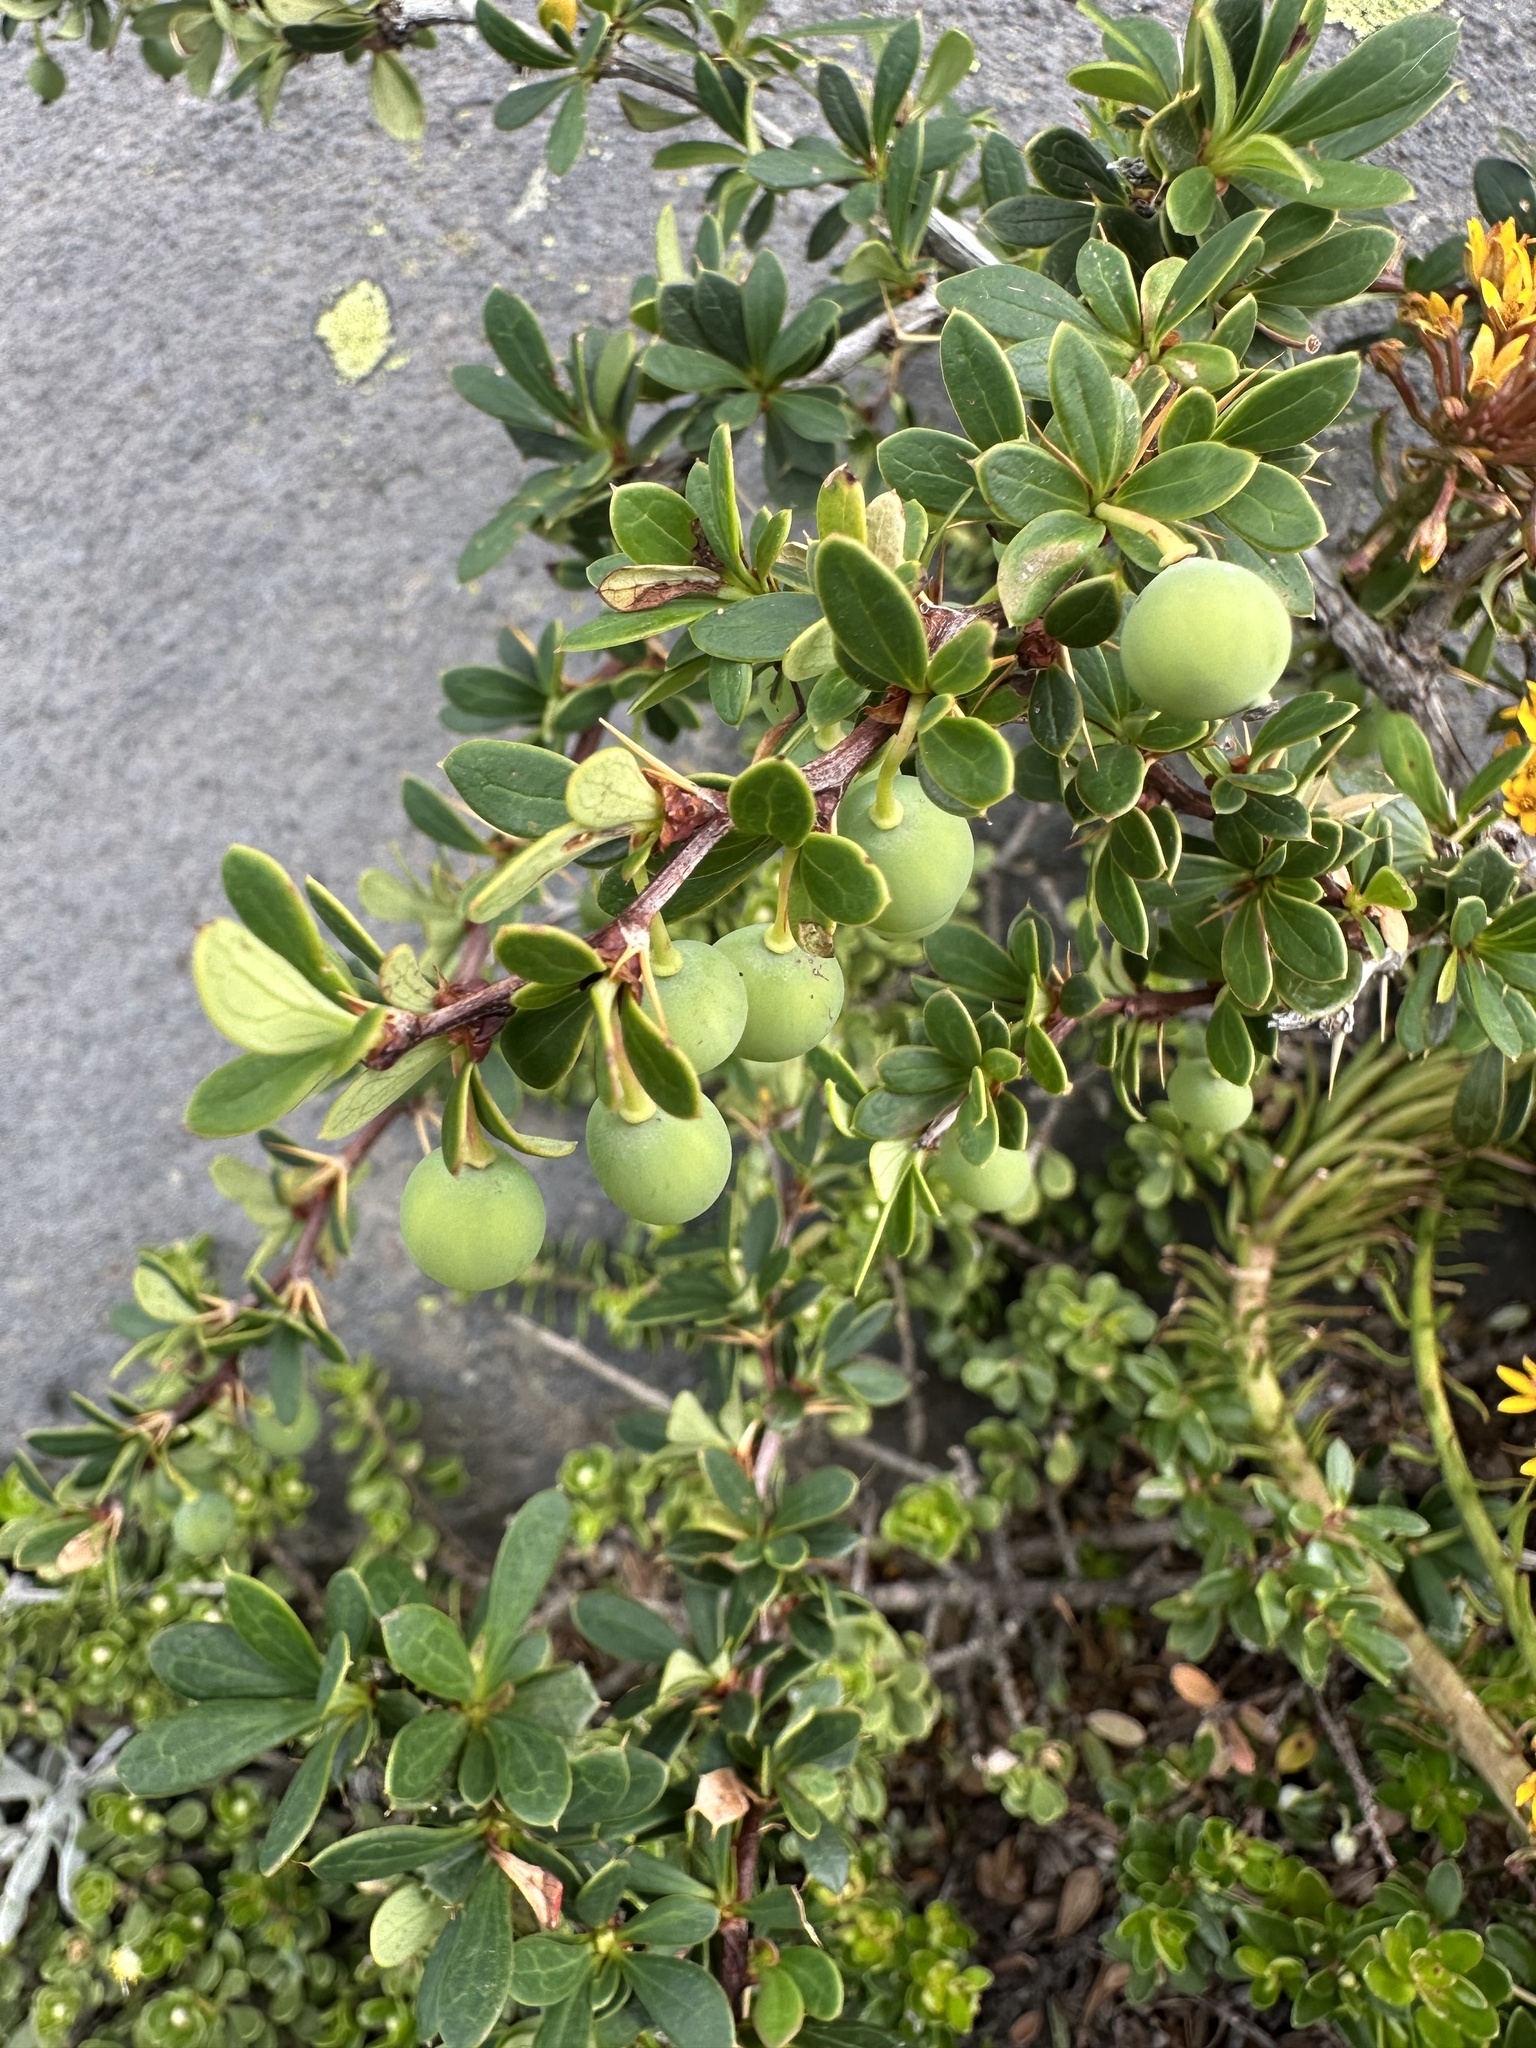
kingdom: Plantae
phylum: Tracheophyta
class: Magnoliopsida
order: Ranunculales
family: Berberidaceae
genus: Berberis
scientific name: Berberis microphylla
